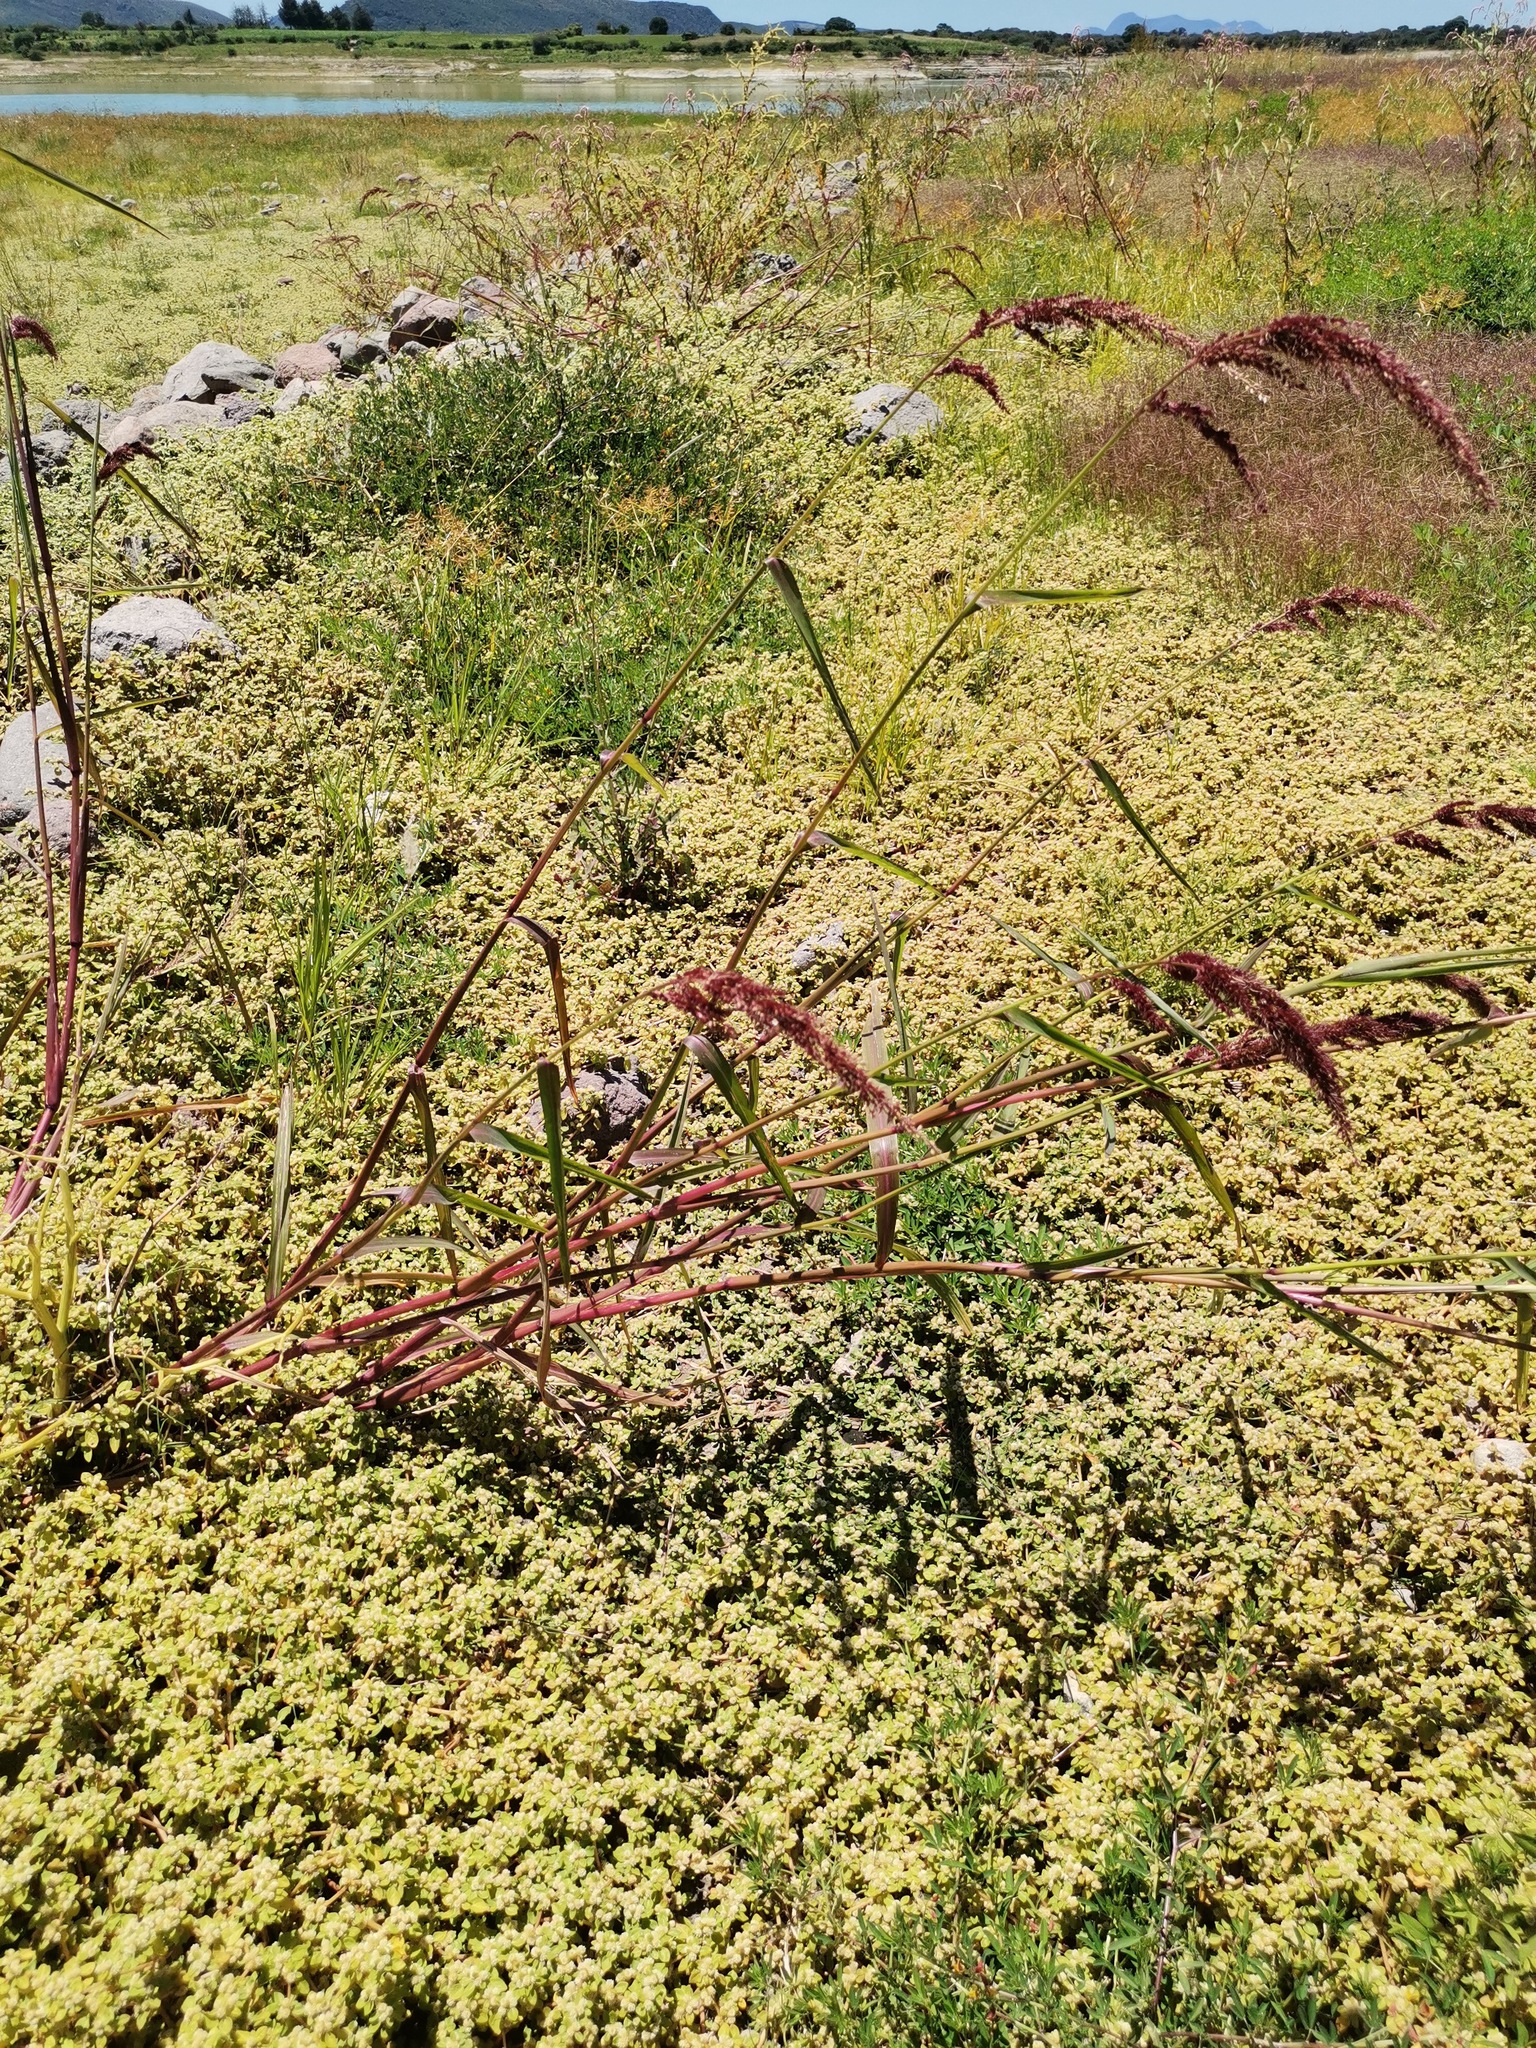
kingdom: Plantae
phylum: Tracheophyta
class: Liliopsida
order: Poales
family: Poaceae
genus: Sorghum
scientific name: Sorghum halepense
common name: Johnson-grass
